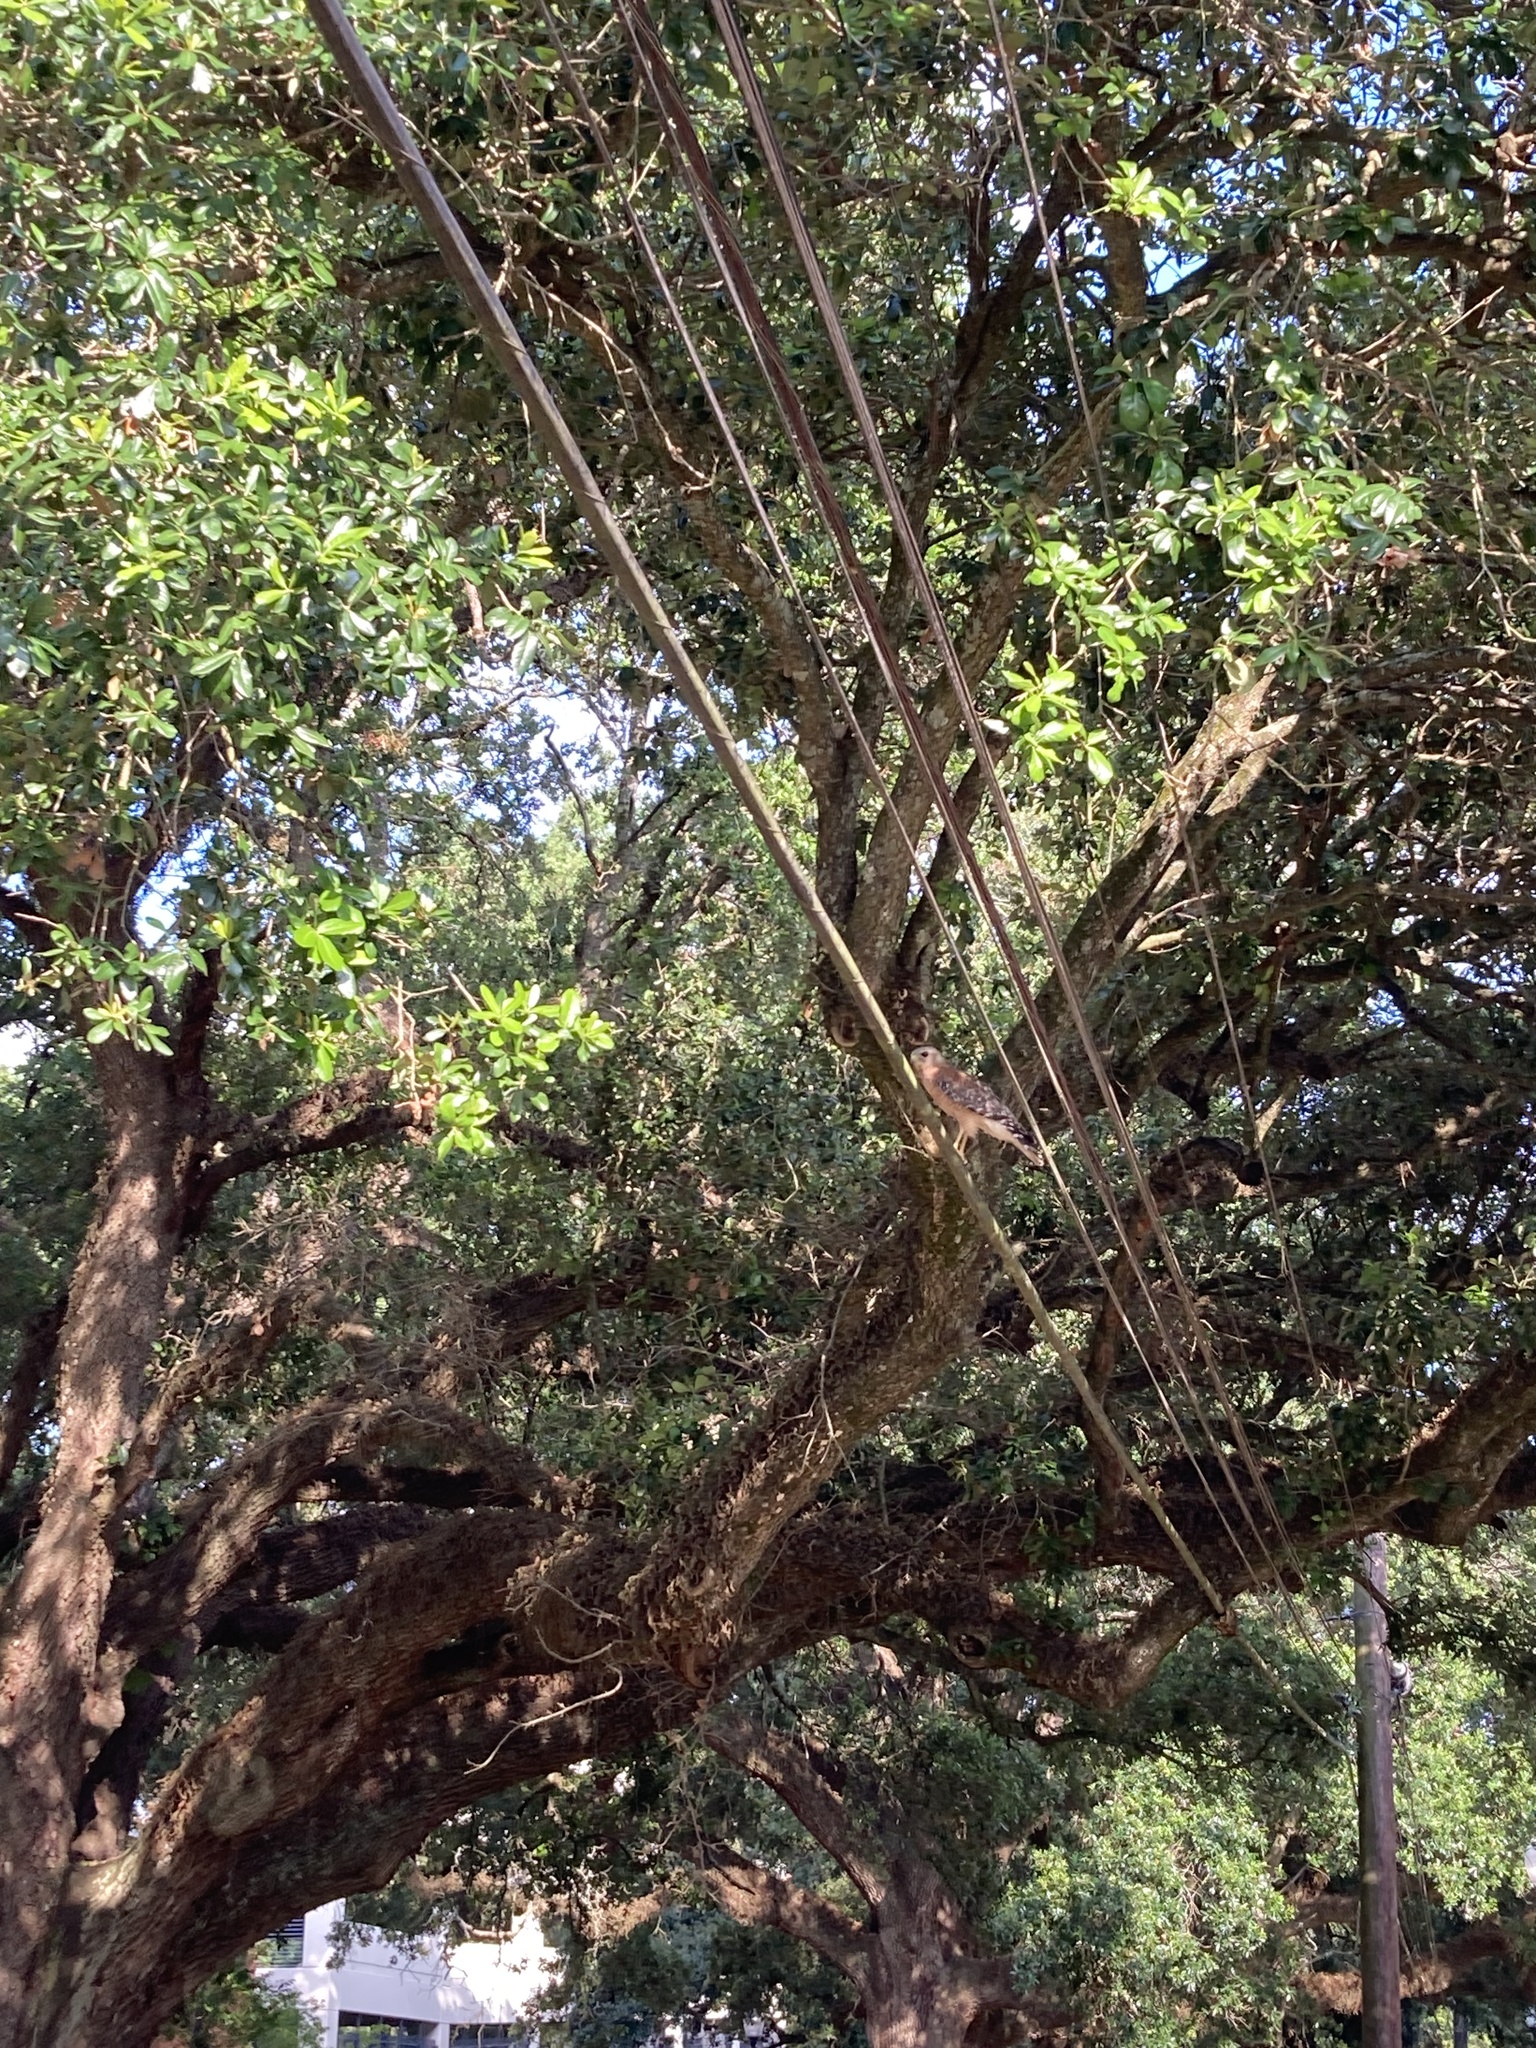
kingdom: Animalia
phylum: Chordata
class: Aves
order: Accipitriformes
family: Accipitridae
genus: Buteo
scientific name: Buteo lineatus
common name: Red-shouldered hawk
